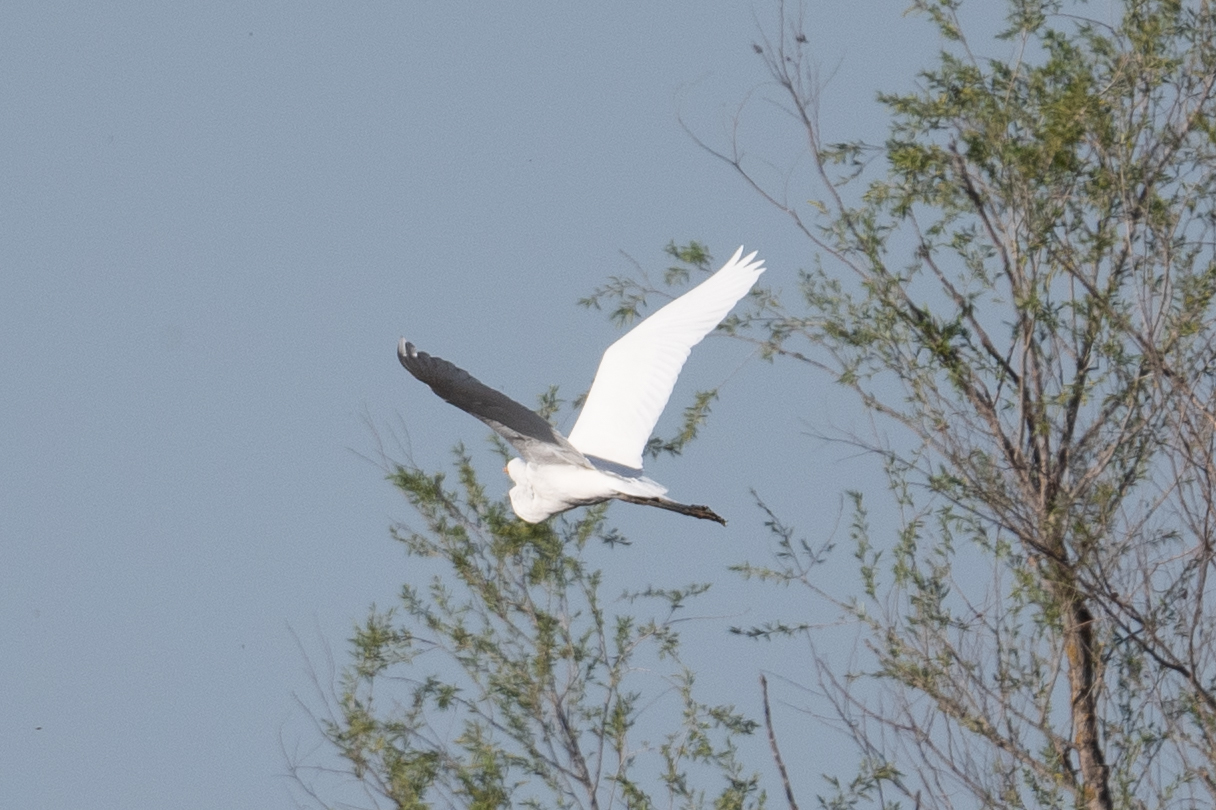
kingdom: Animalia
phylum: Chordata
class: Aves
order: Pelecaniformes
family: Ardeidae
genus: Ardea
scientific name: Ardea alba
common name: Great egret
